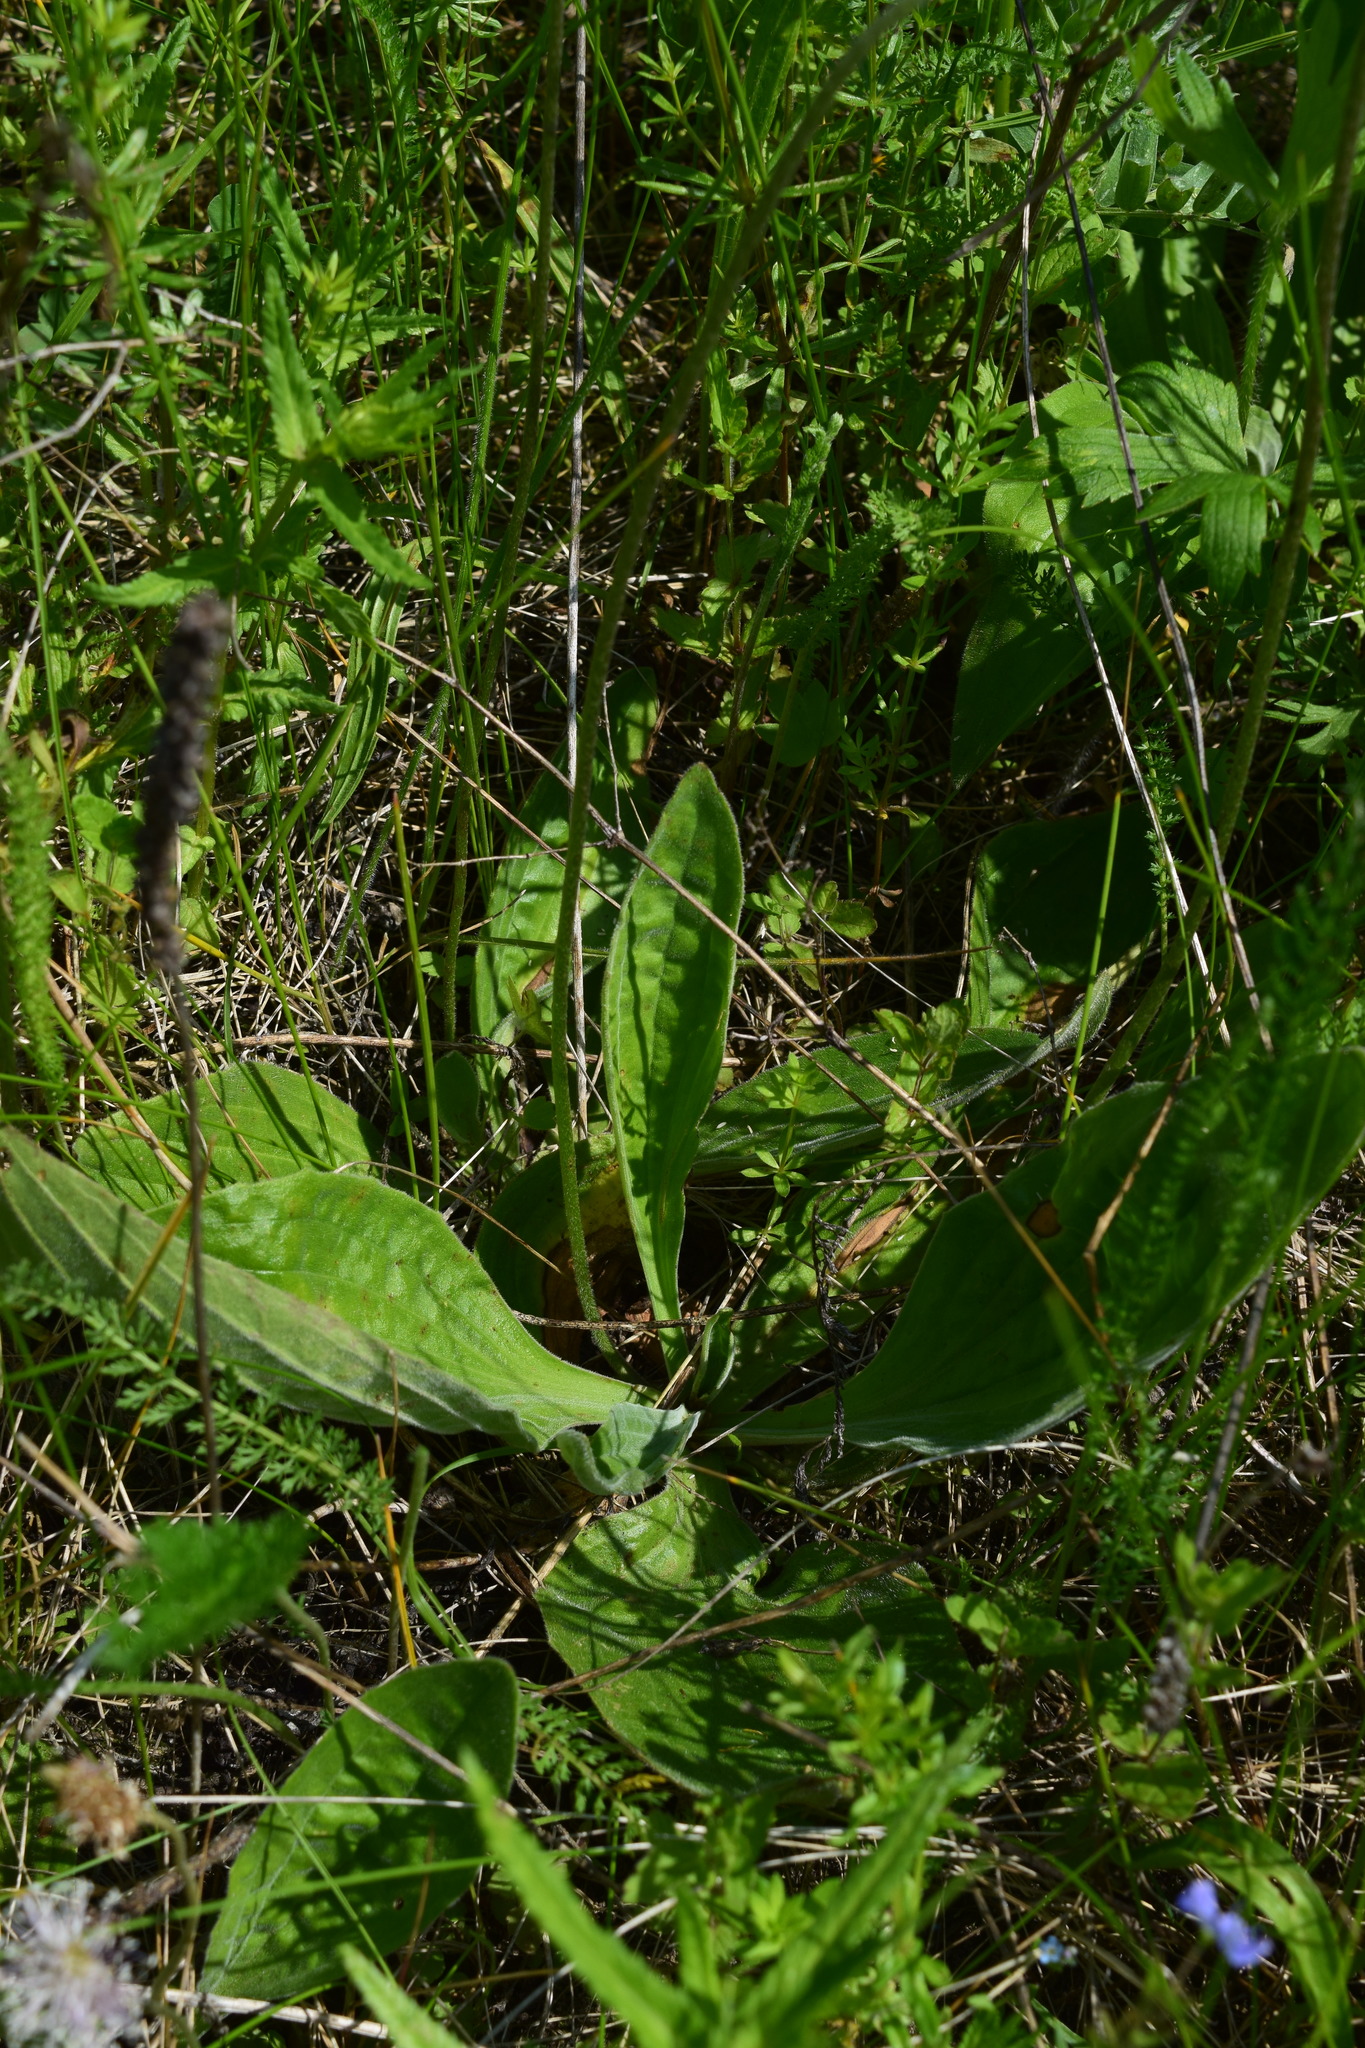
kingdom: Plantae
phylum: Tracheophyta
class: Magnoliopsida
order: Lamiales
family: Plantaginaceae
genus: Plantago
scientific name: Plantago media
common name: Hoary plantain
